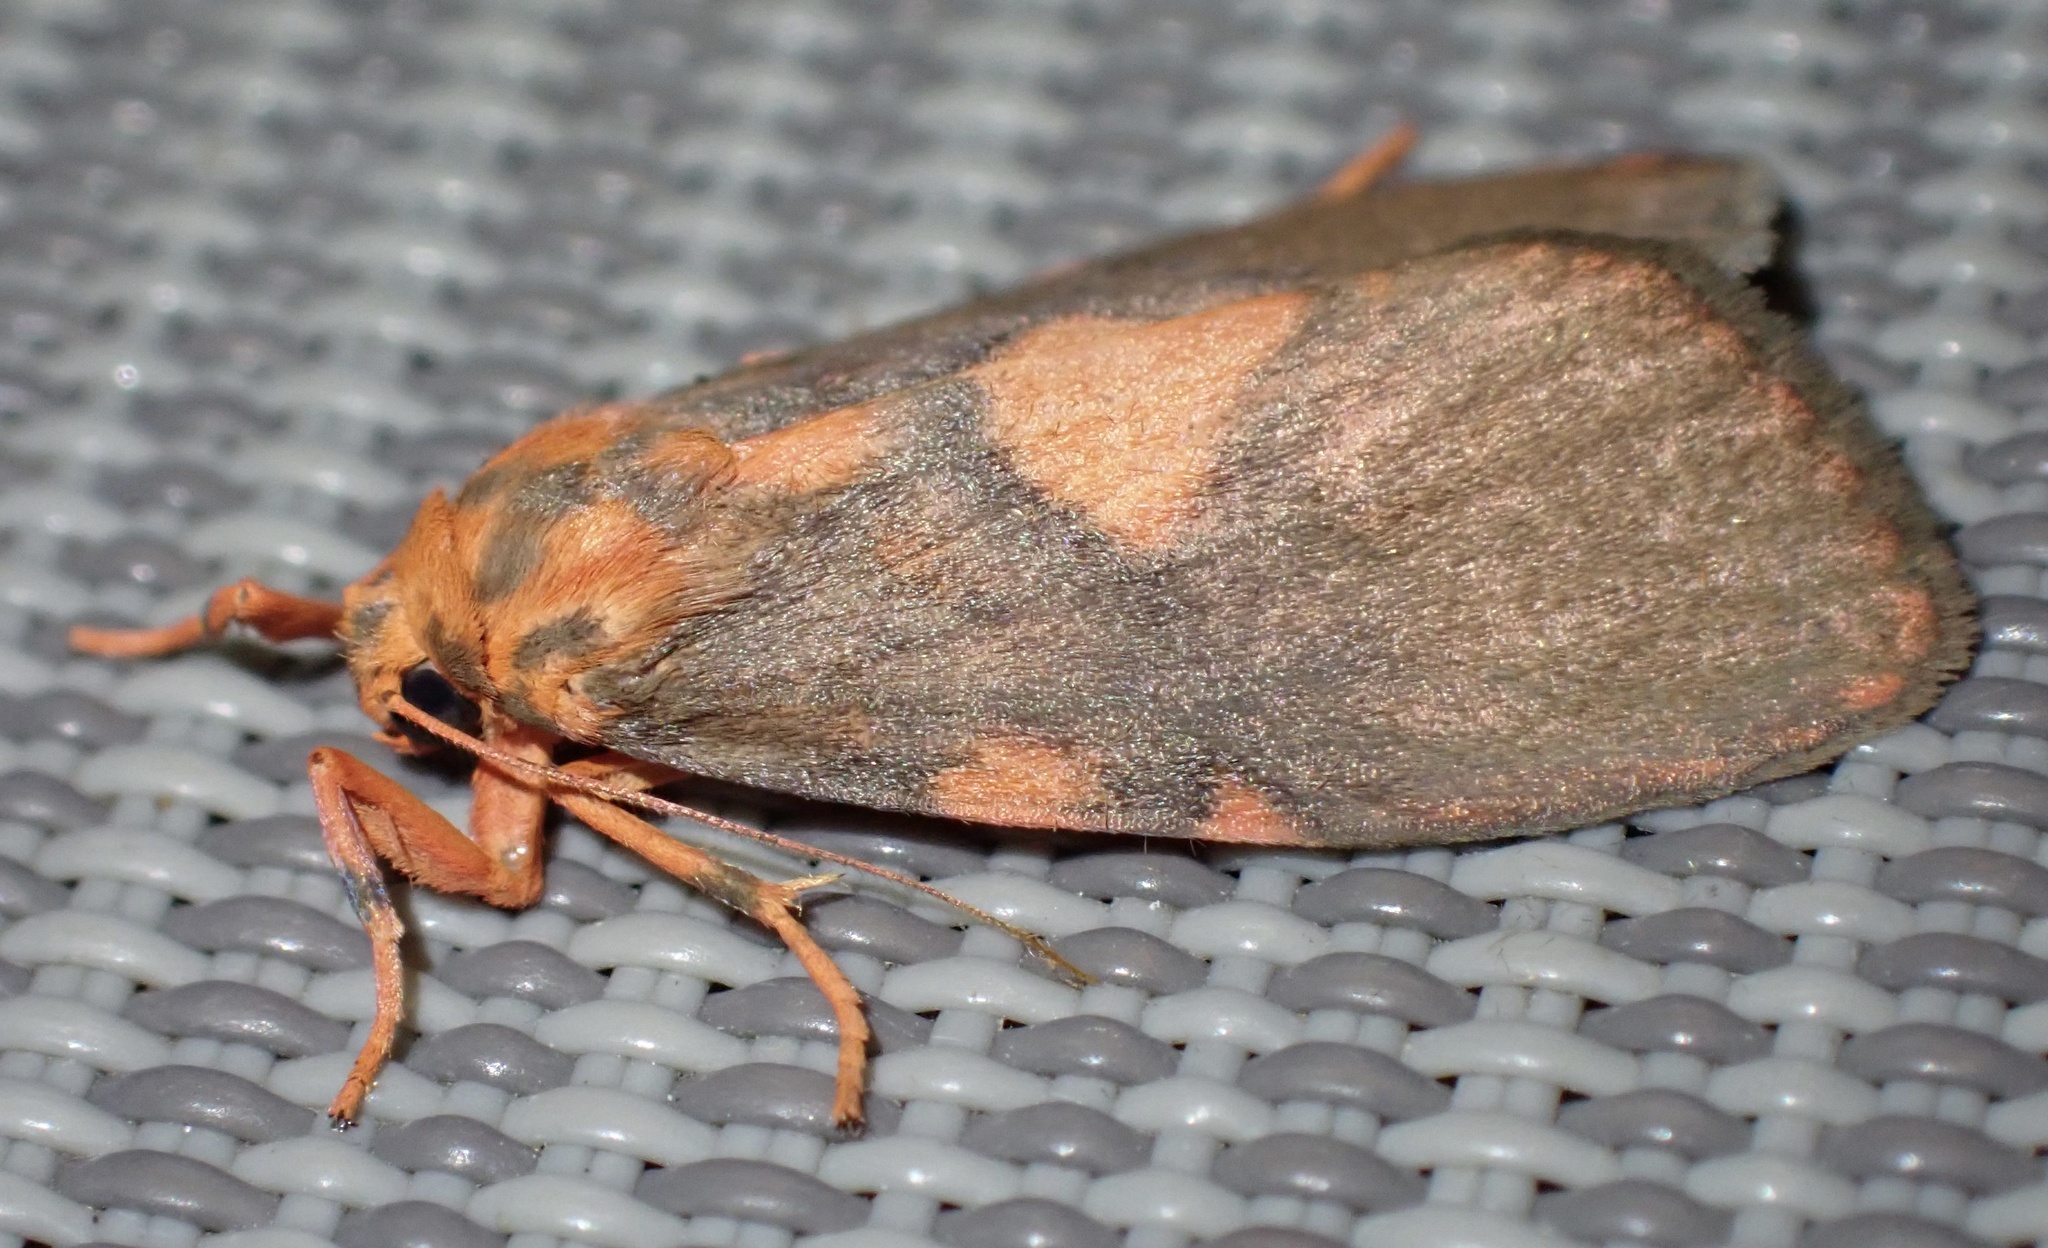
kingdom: Animalia
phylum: Arthropoda
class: Insecta
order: Lepidoptera
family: Erebidae
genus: Cyme
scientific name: Cyme triangularis
